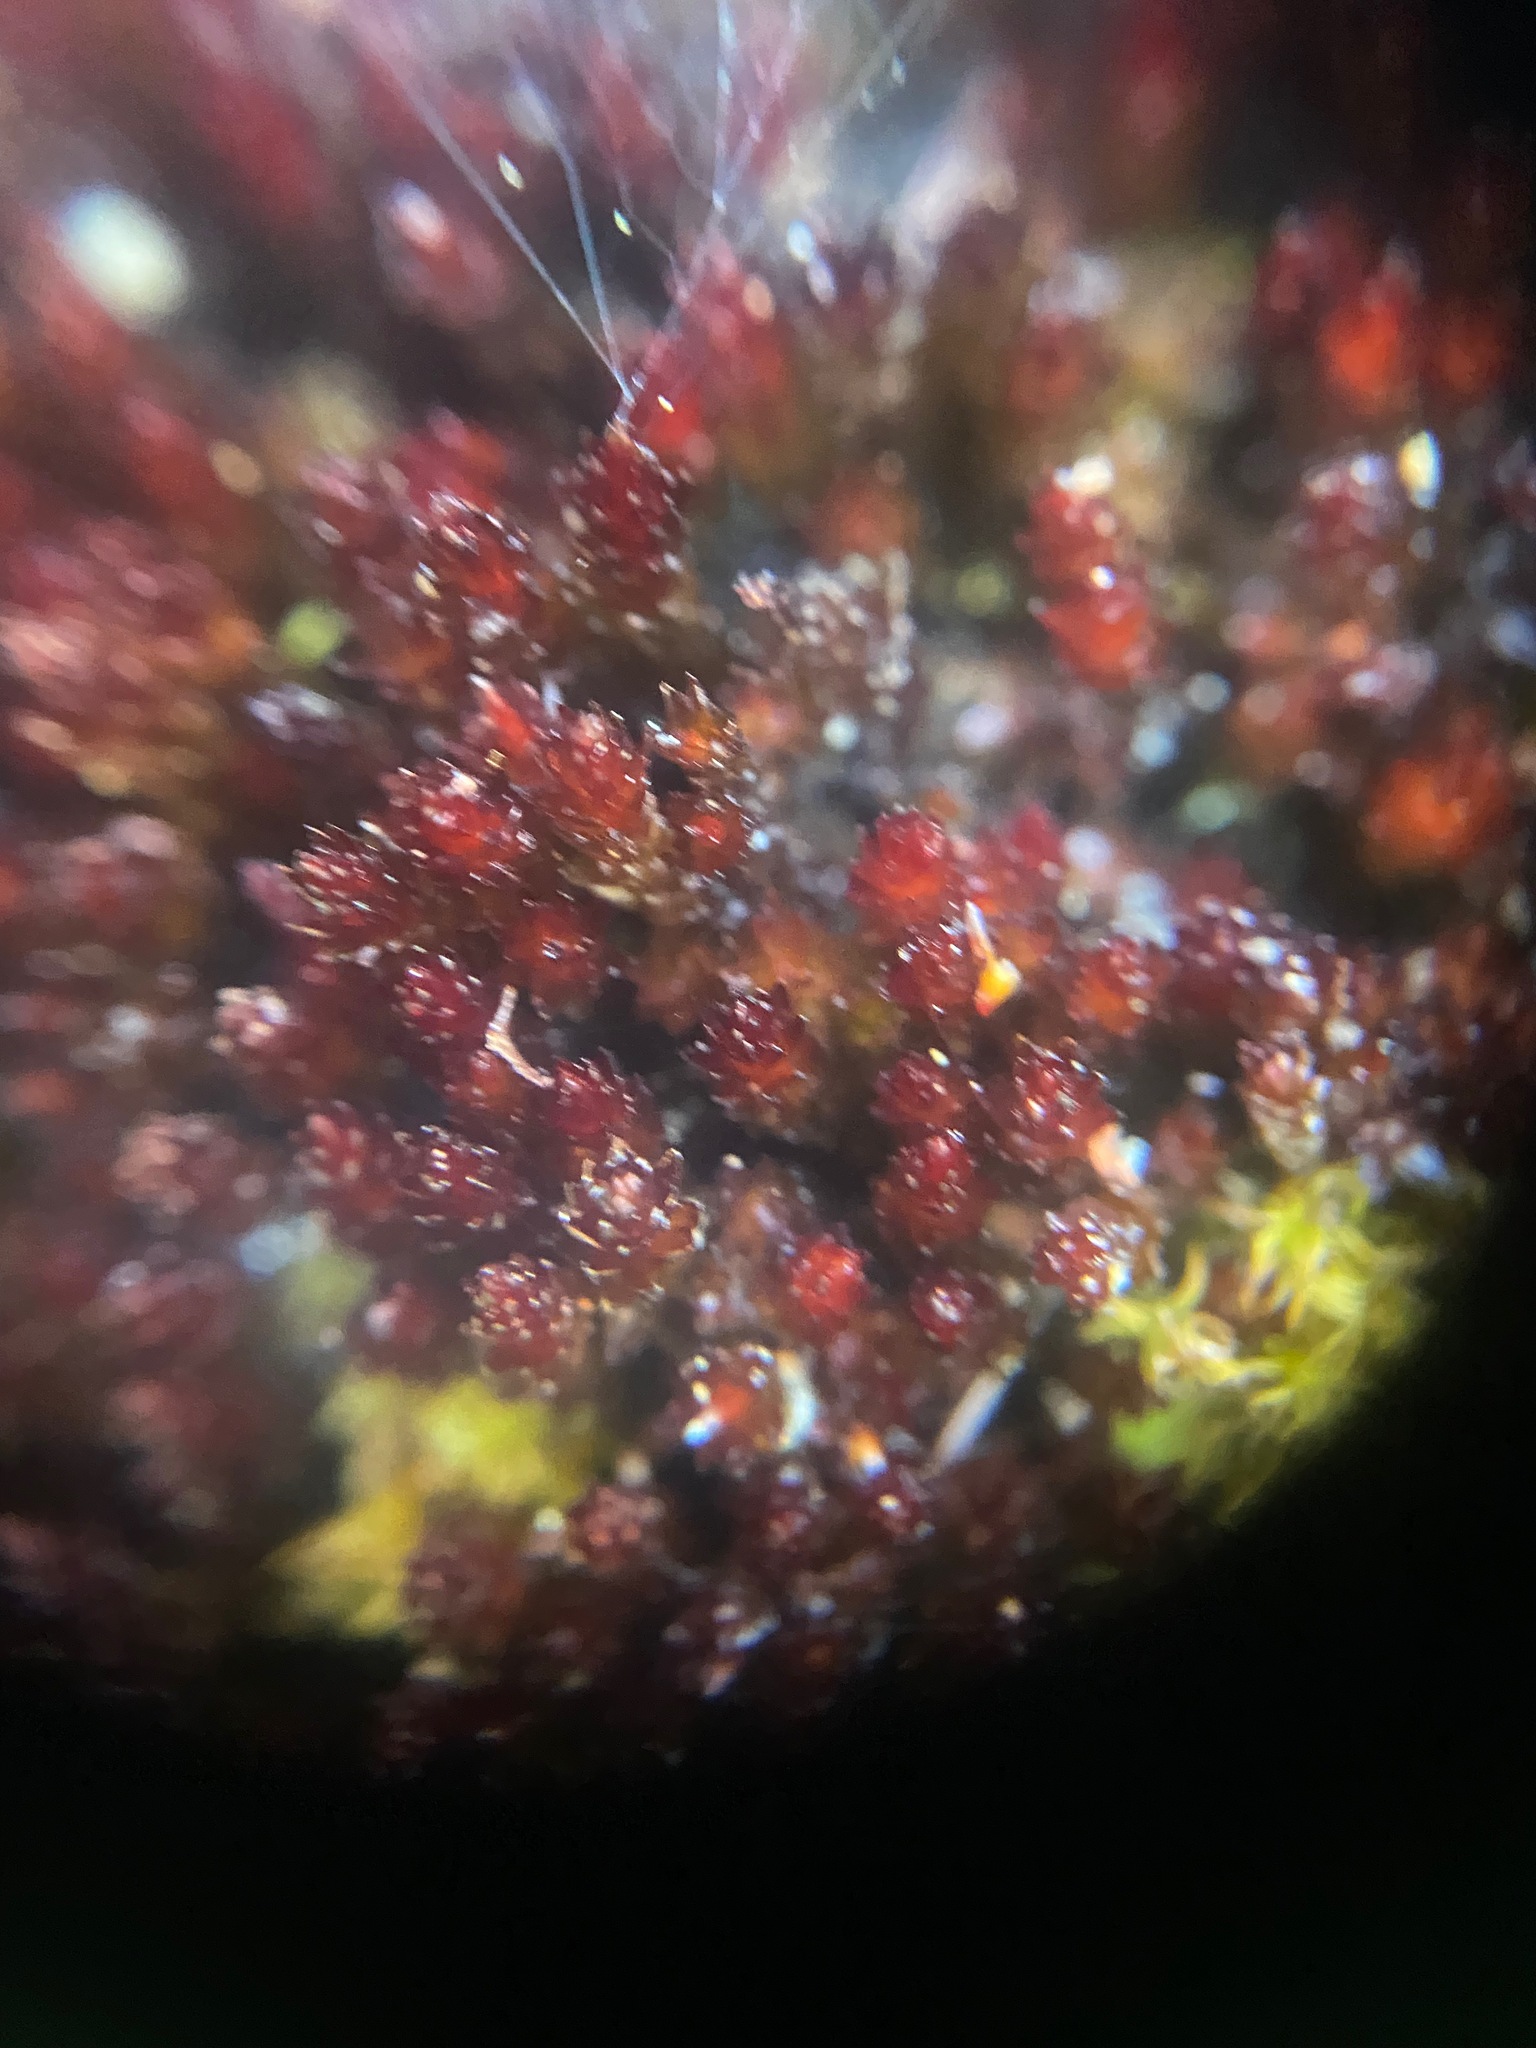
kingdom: Plantae
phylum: Bryophyta
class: Bryopsida
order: Bryales
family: Bryaceae
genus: Imbribryum
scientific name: Imbribryum miniatum
